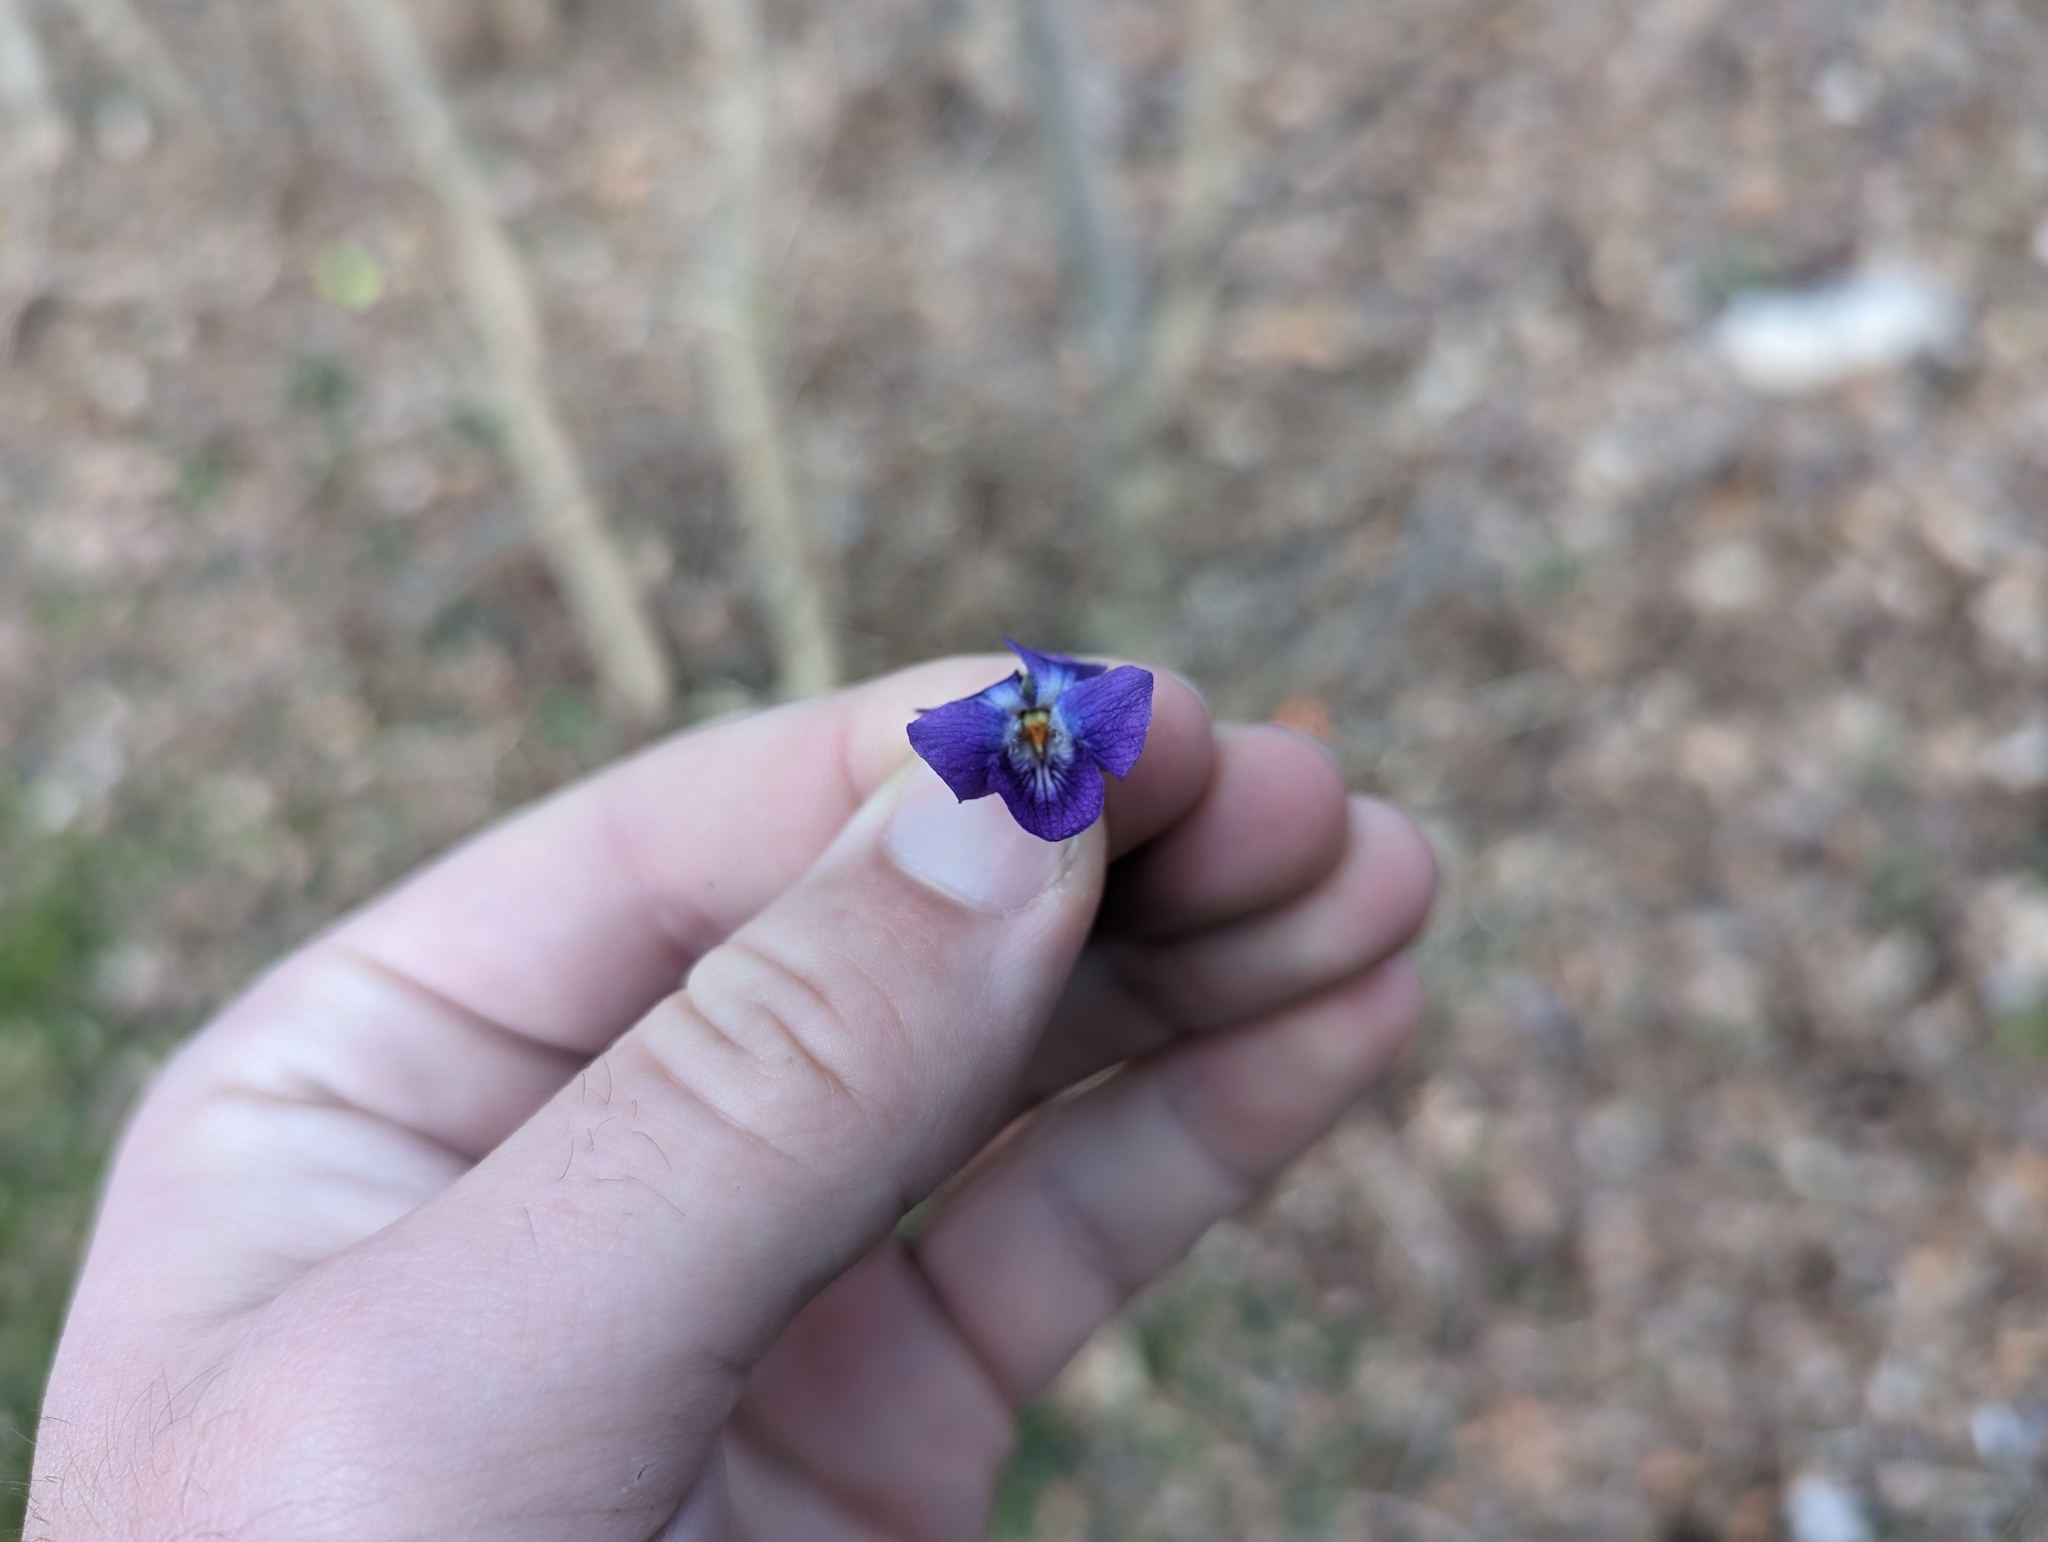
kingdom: Plantae
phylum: Tracheophyta
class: Magnoliopsida
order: Malpighiales
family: Violaceae
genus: Viola
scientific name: Viola odorata
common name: Sweet violet
